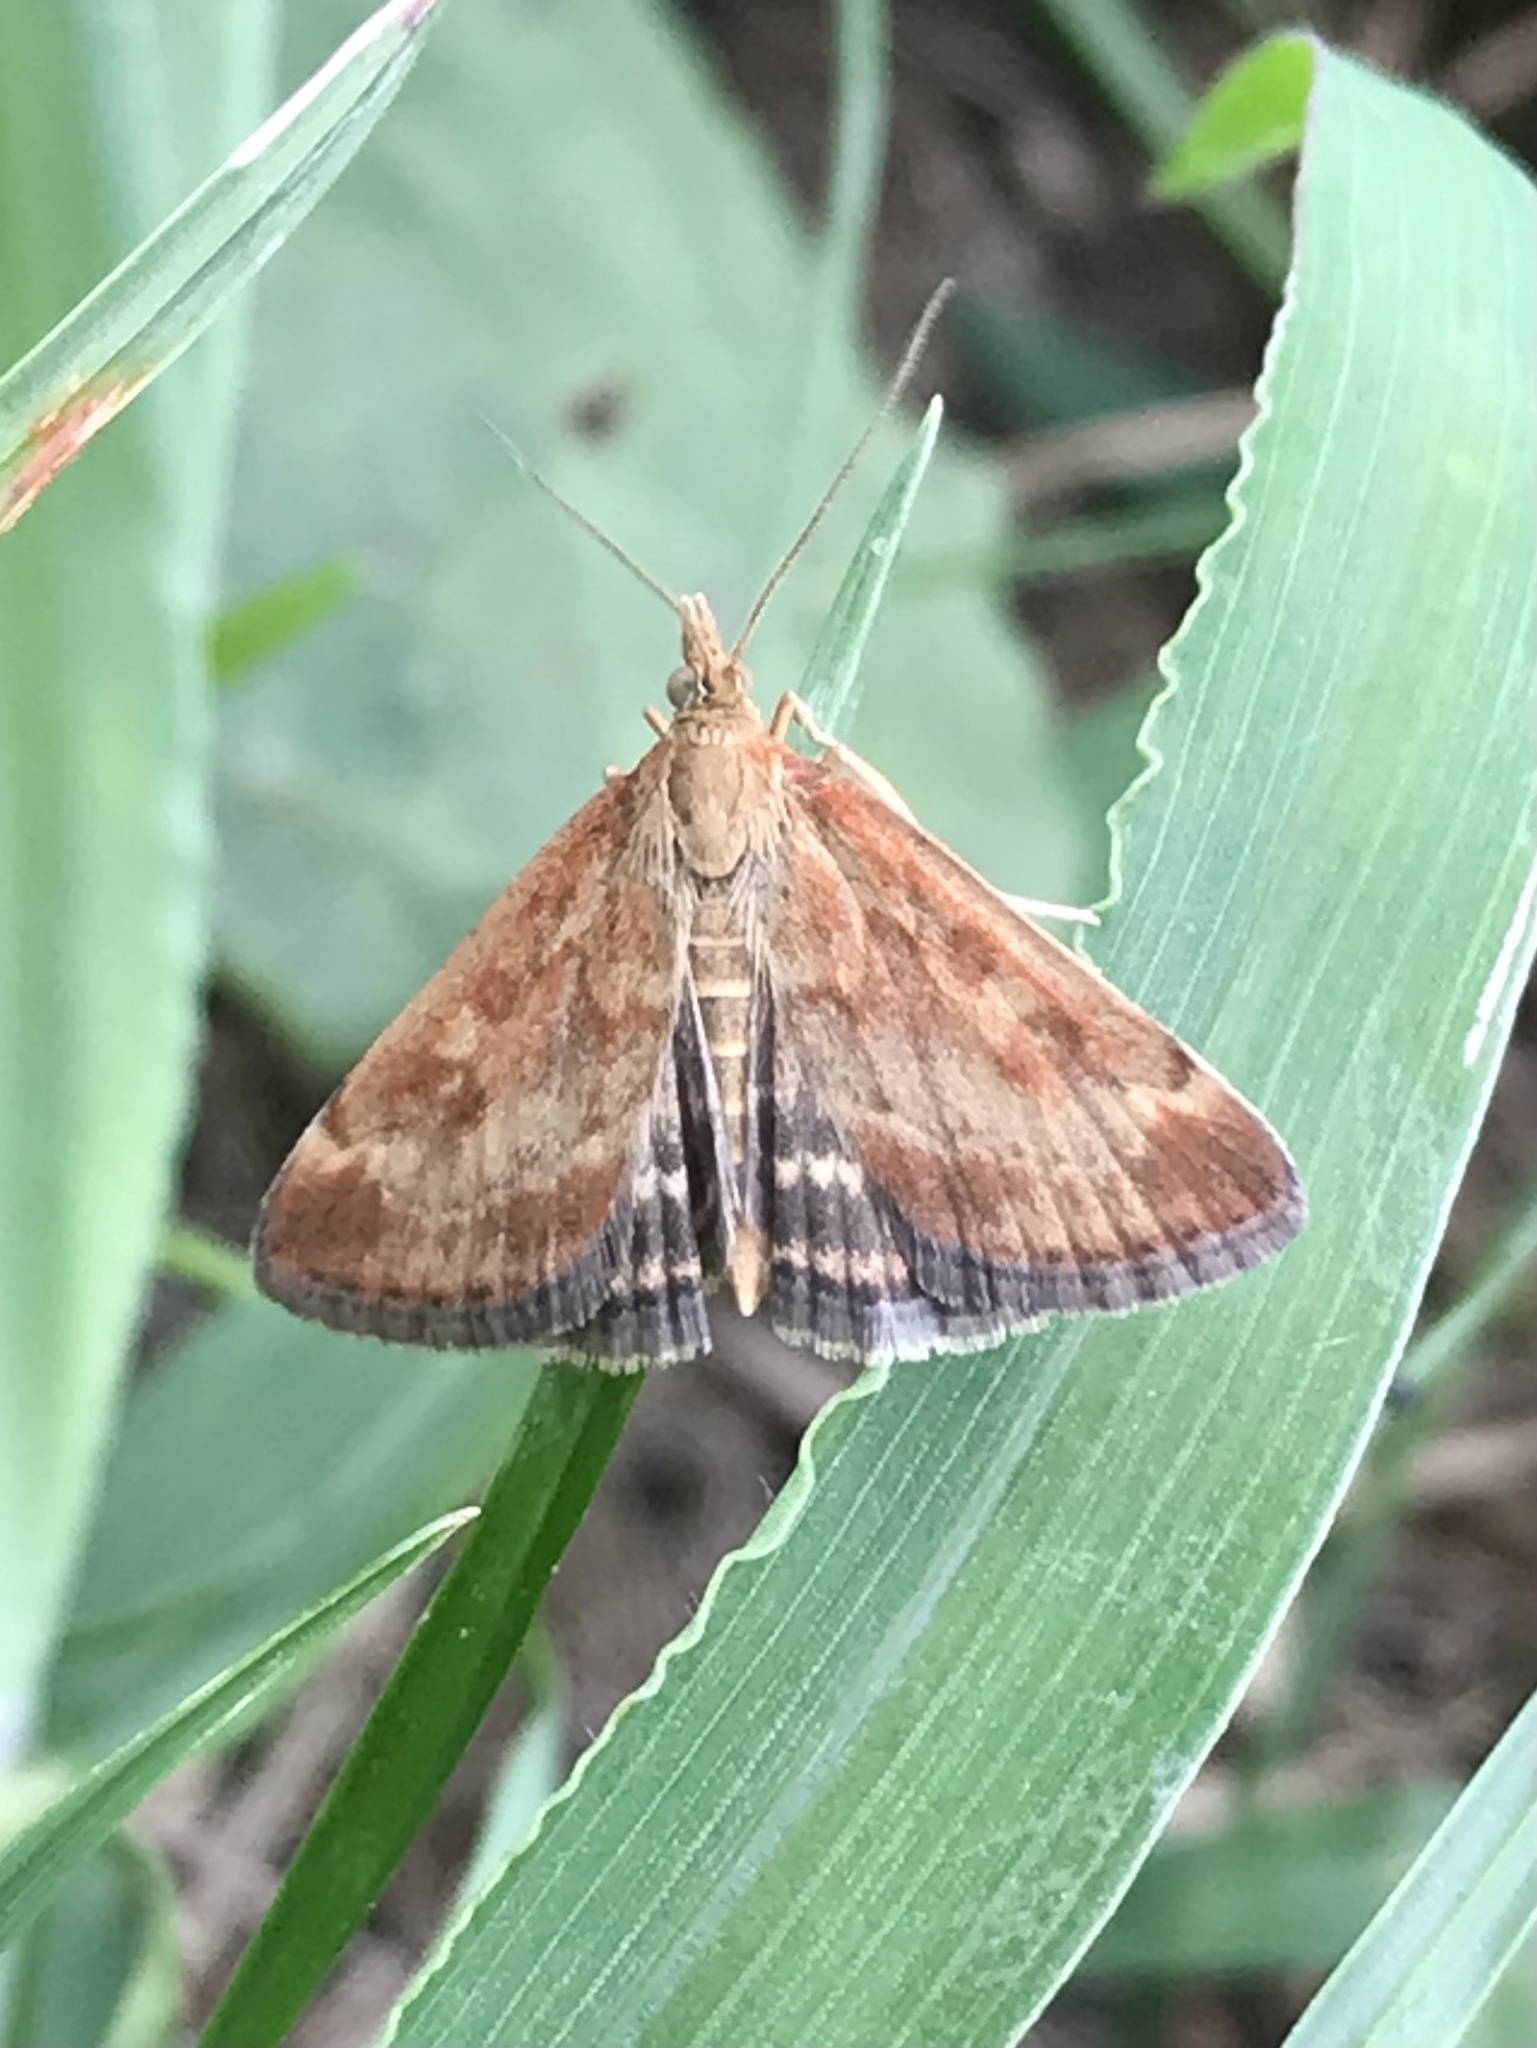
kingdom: Animalia
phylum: Arthropoda
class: Insecta
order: Lepidoptera
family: Crambidae
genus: Pyrausta
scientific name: Pyrausta despicata
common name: Straw-barred pearl
